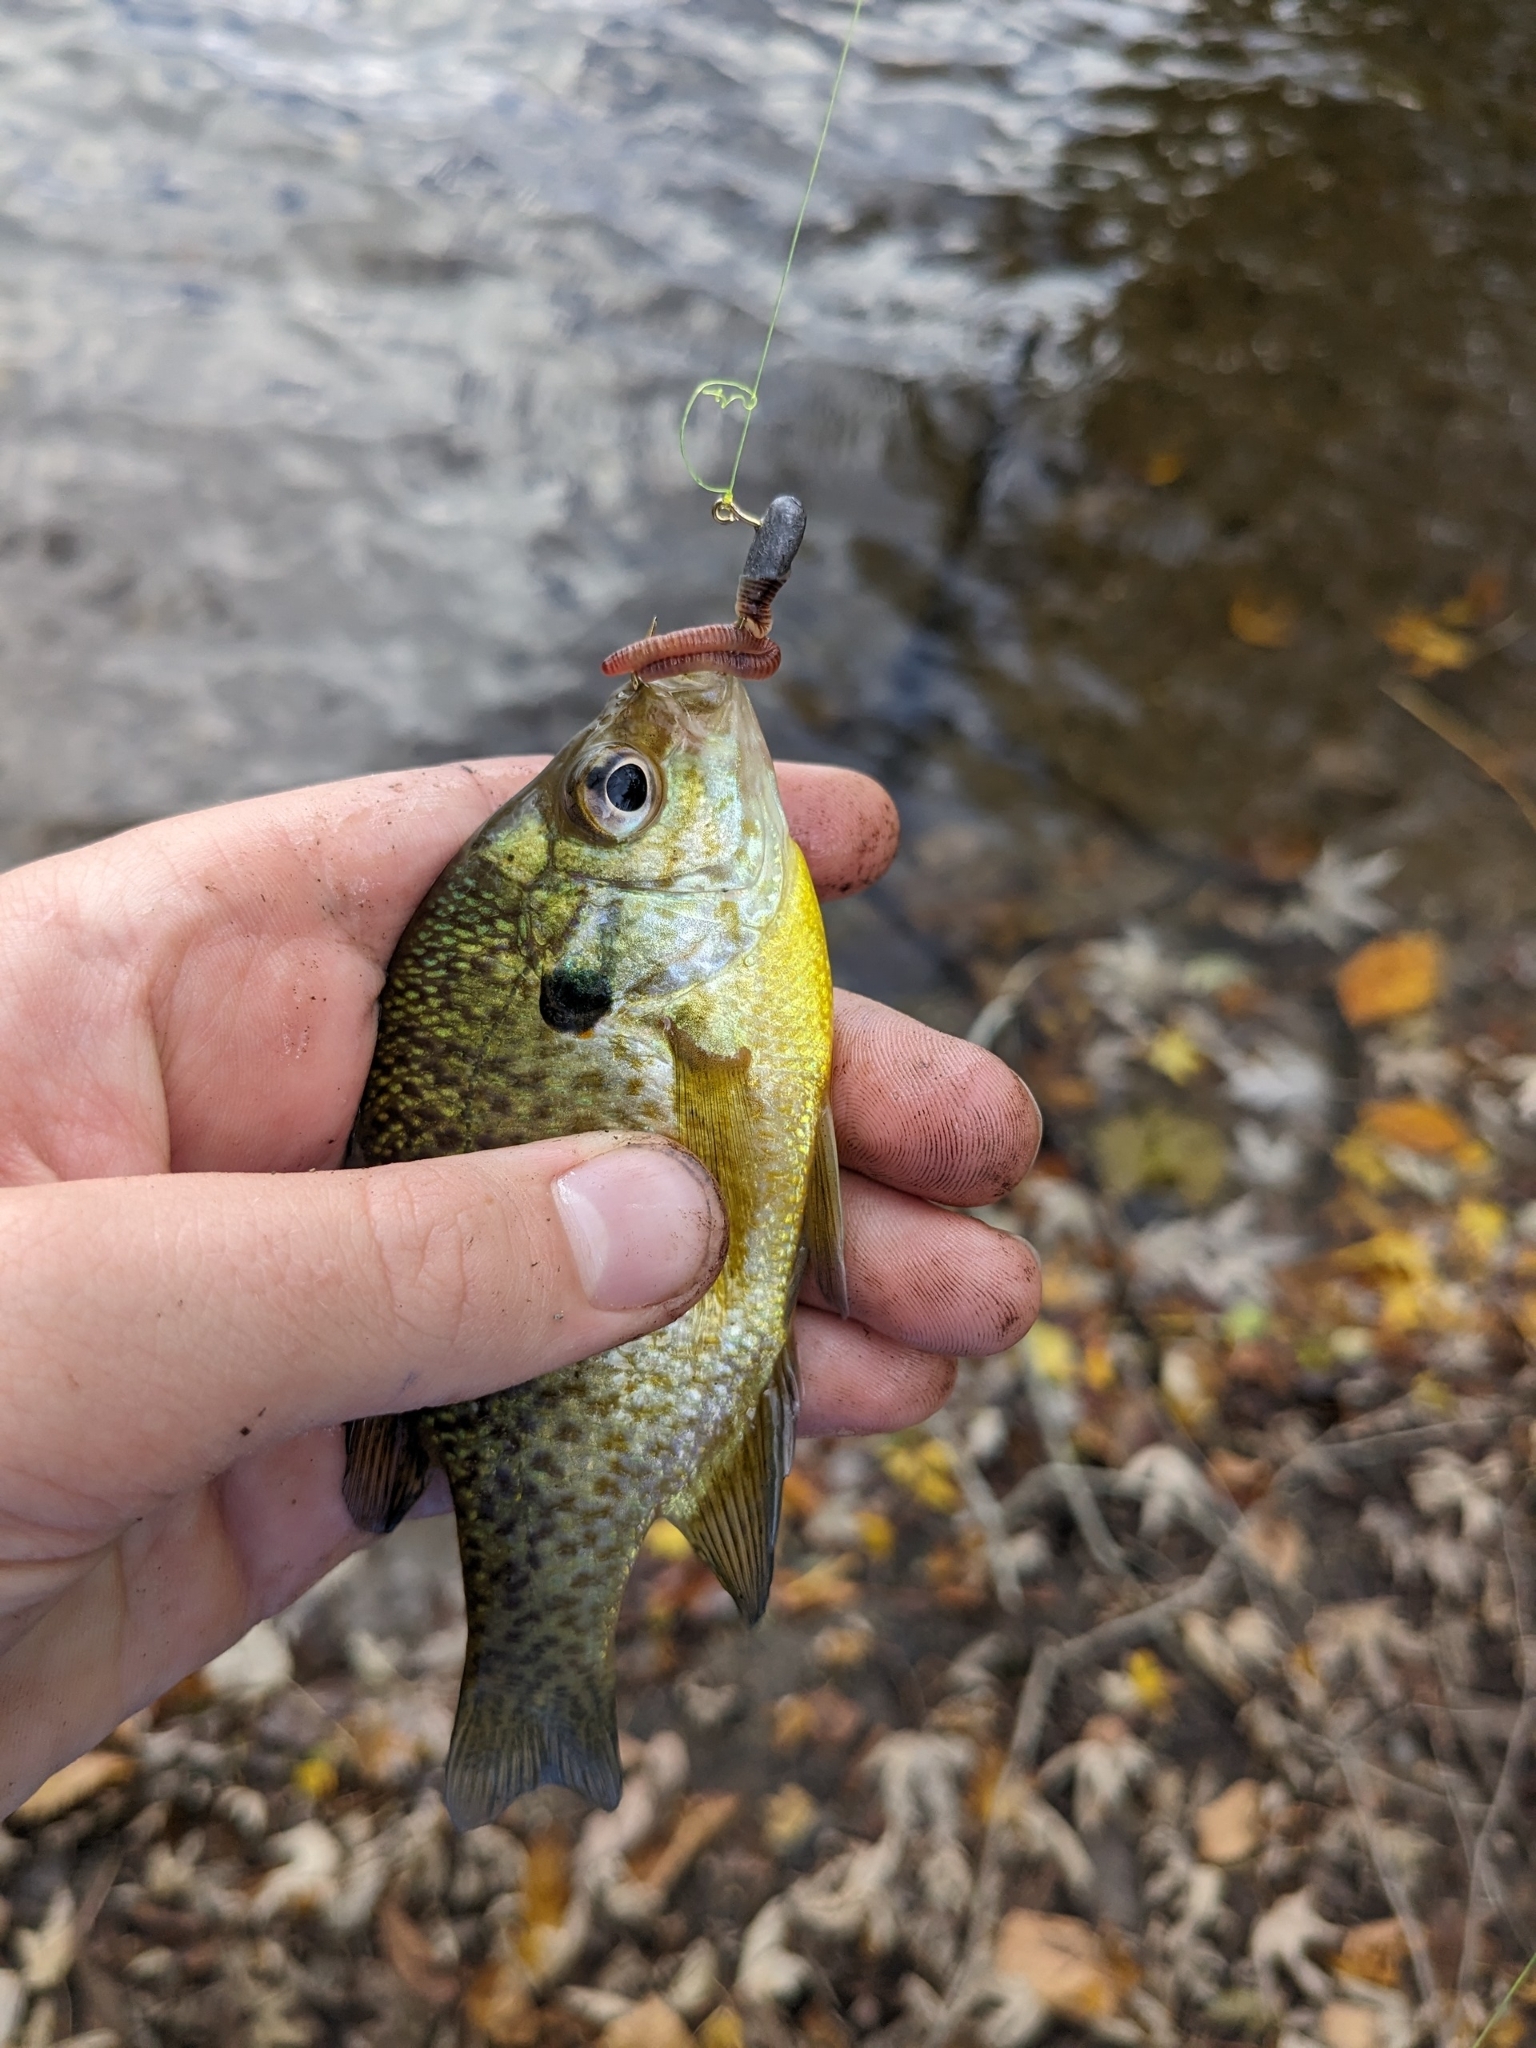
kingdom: Animalia
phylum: Chordata
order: Perciformes
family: Centrarchidae
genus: Lepomis
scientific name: Lepomis
